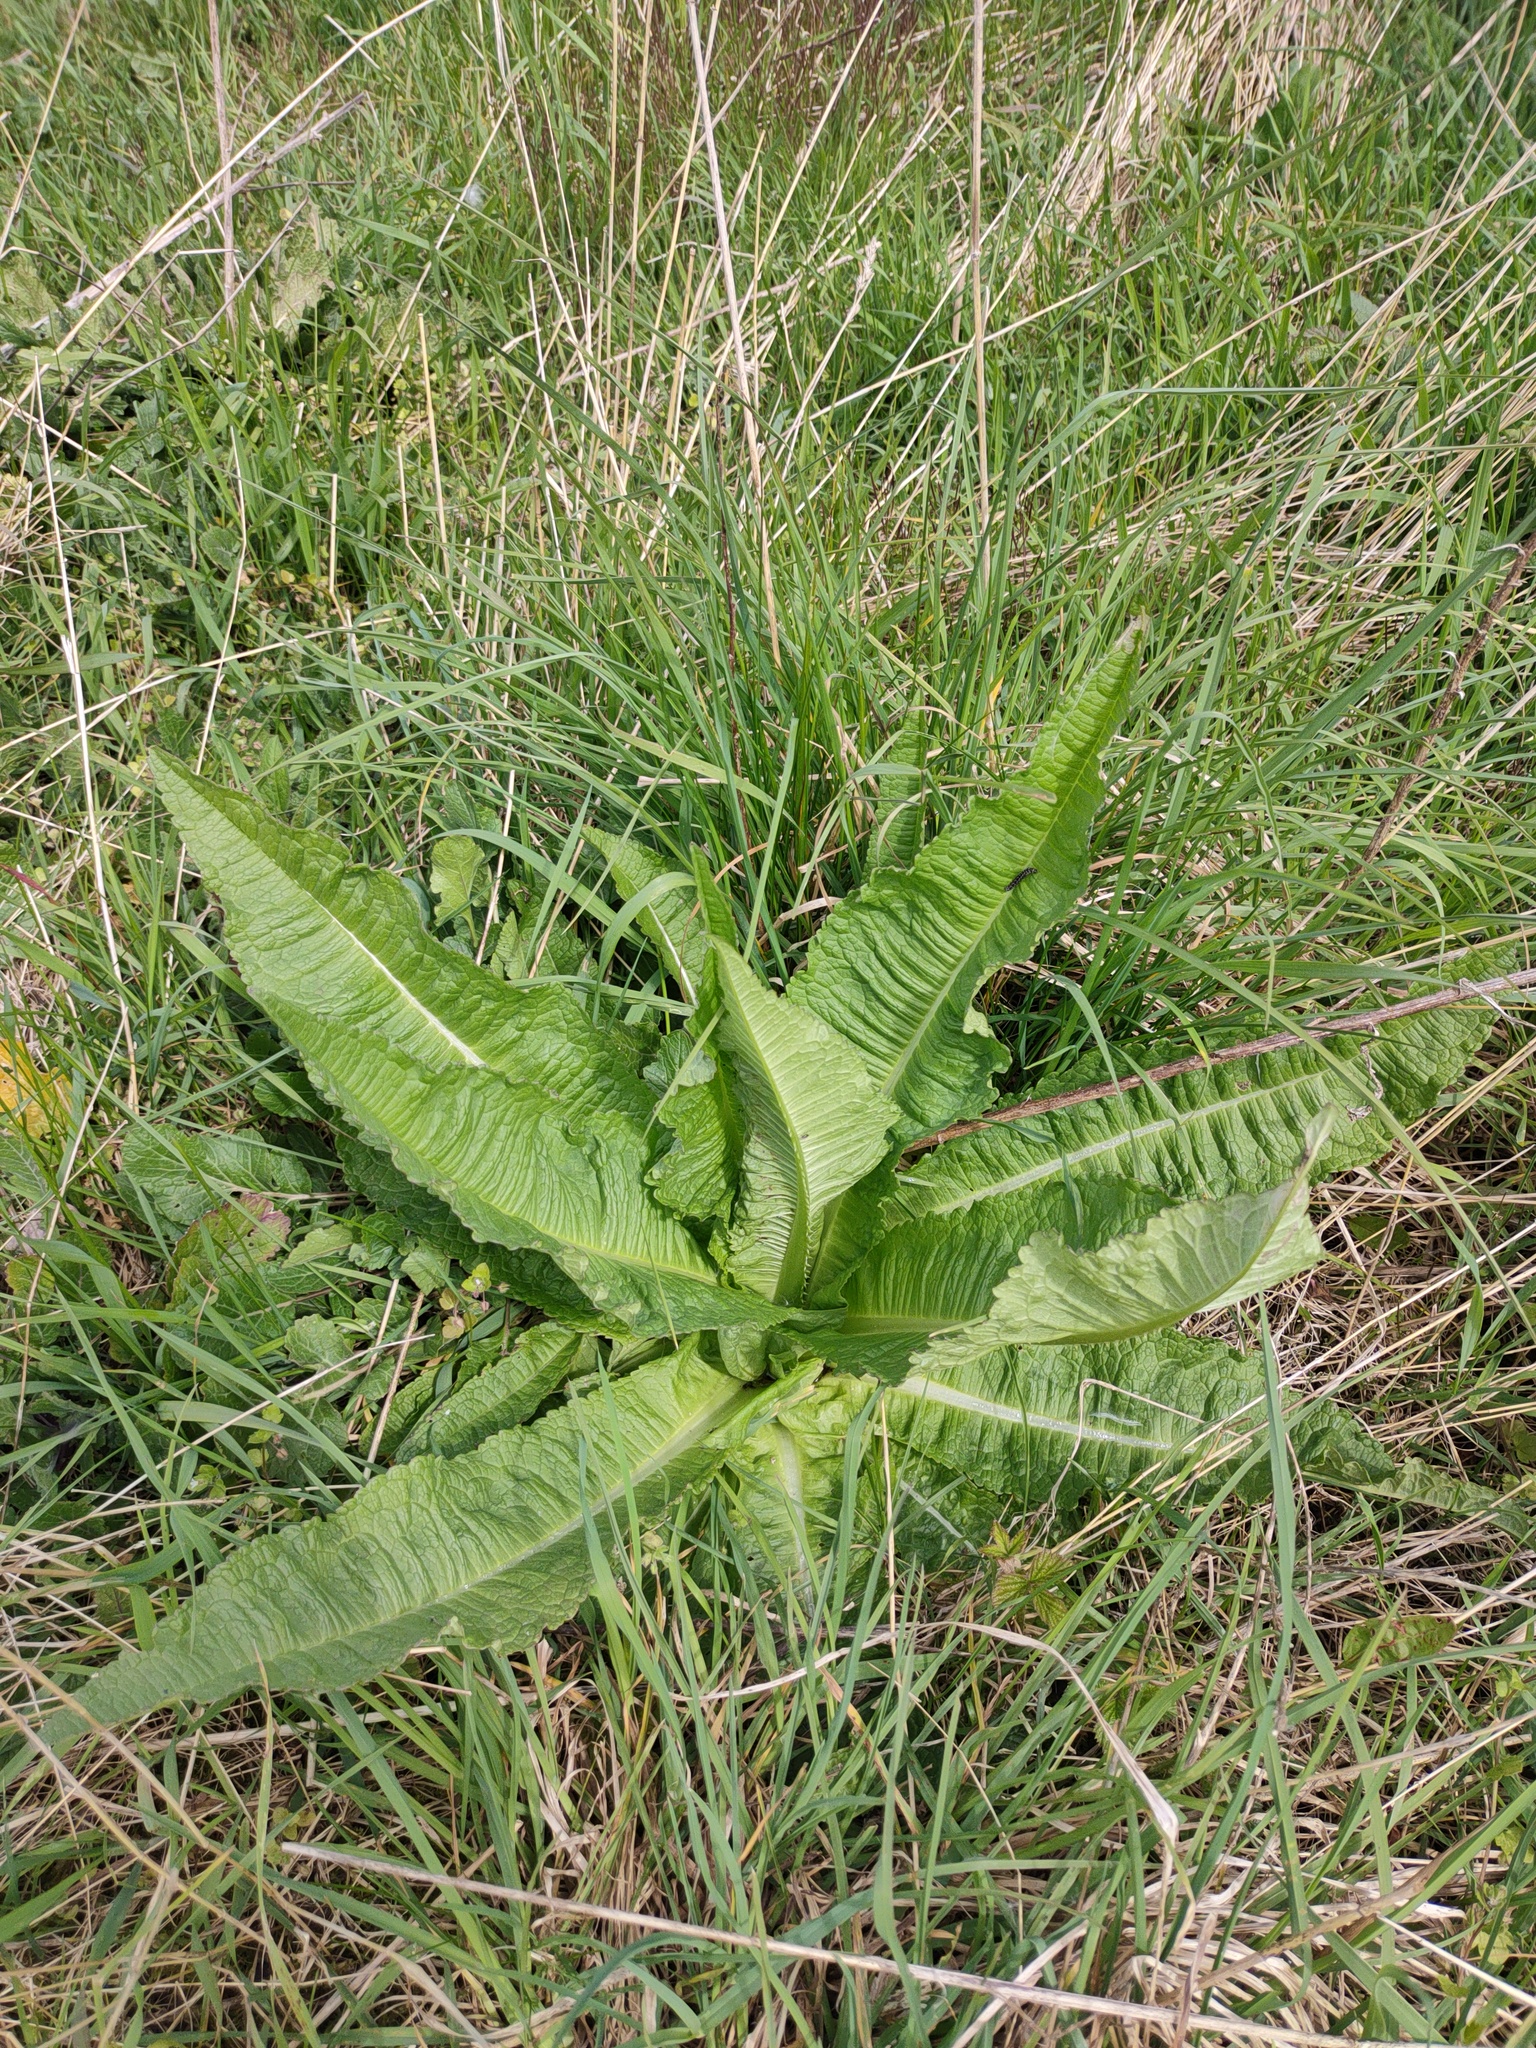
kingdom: Plantae
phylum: Tracheophyta
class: Magnoliopsida
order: Dipsacales
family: Caprifoliaceae
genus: Dipsacus
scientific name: Dipsacus fullonum
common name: Teasel
